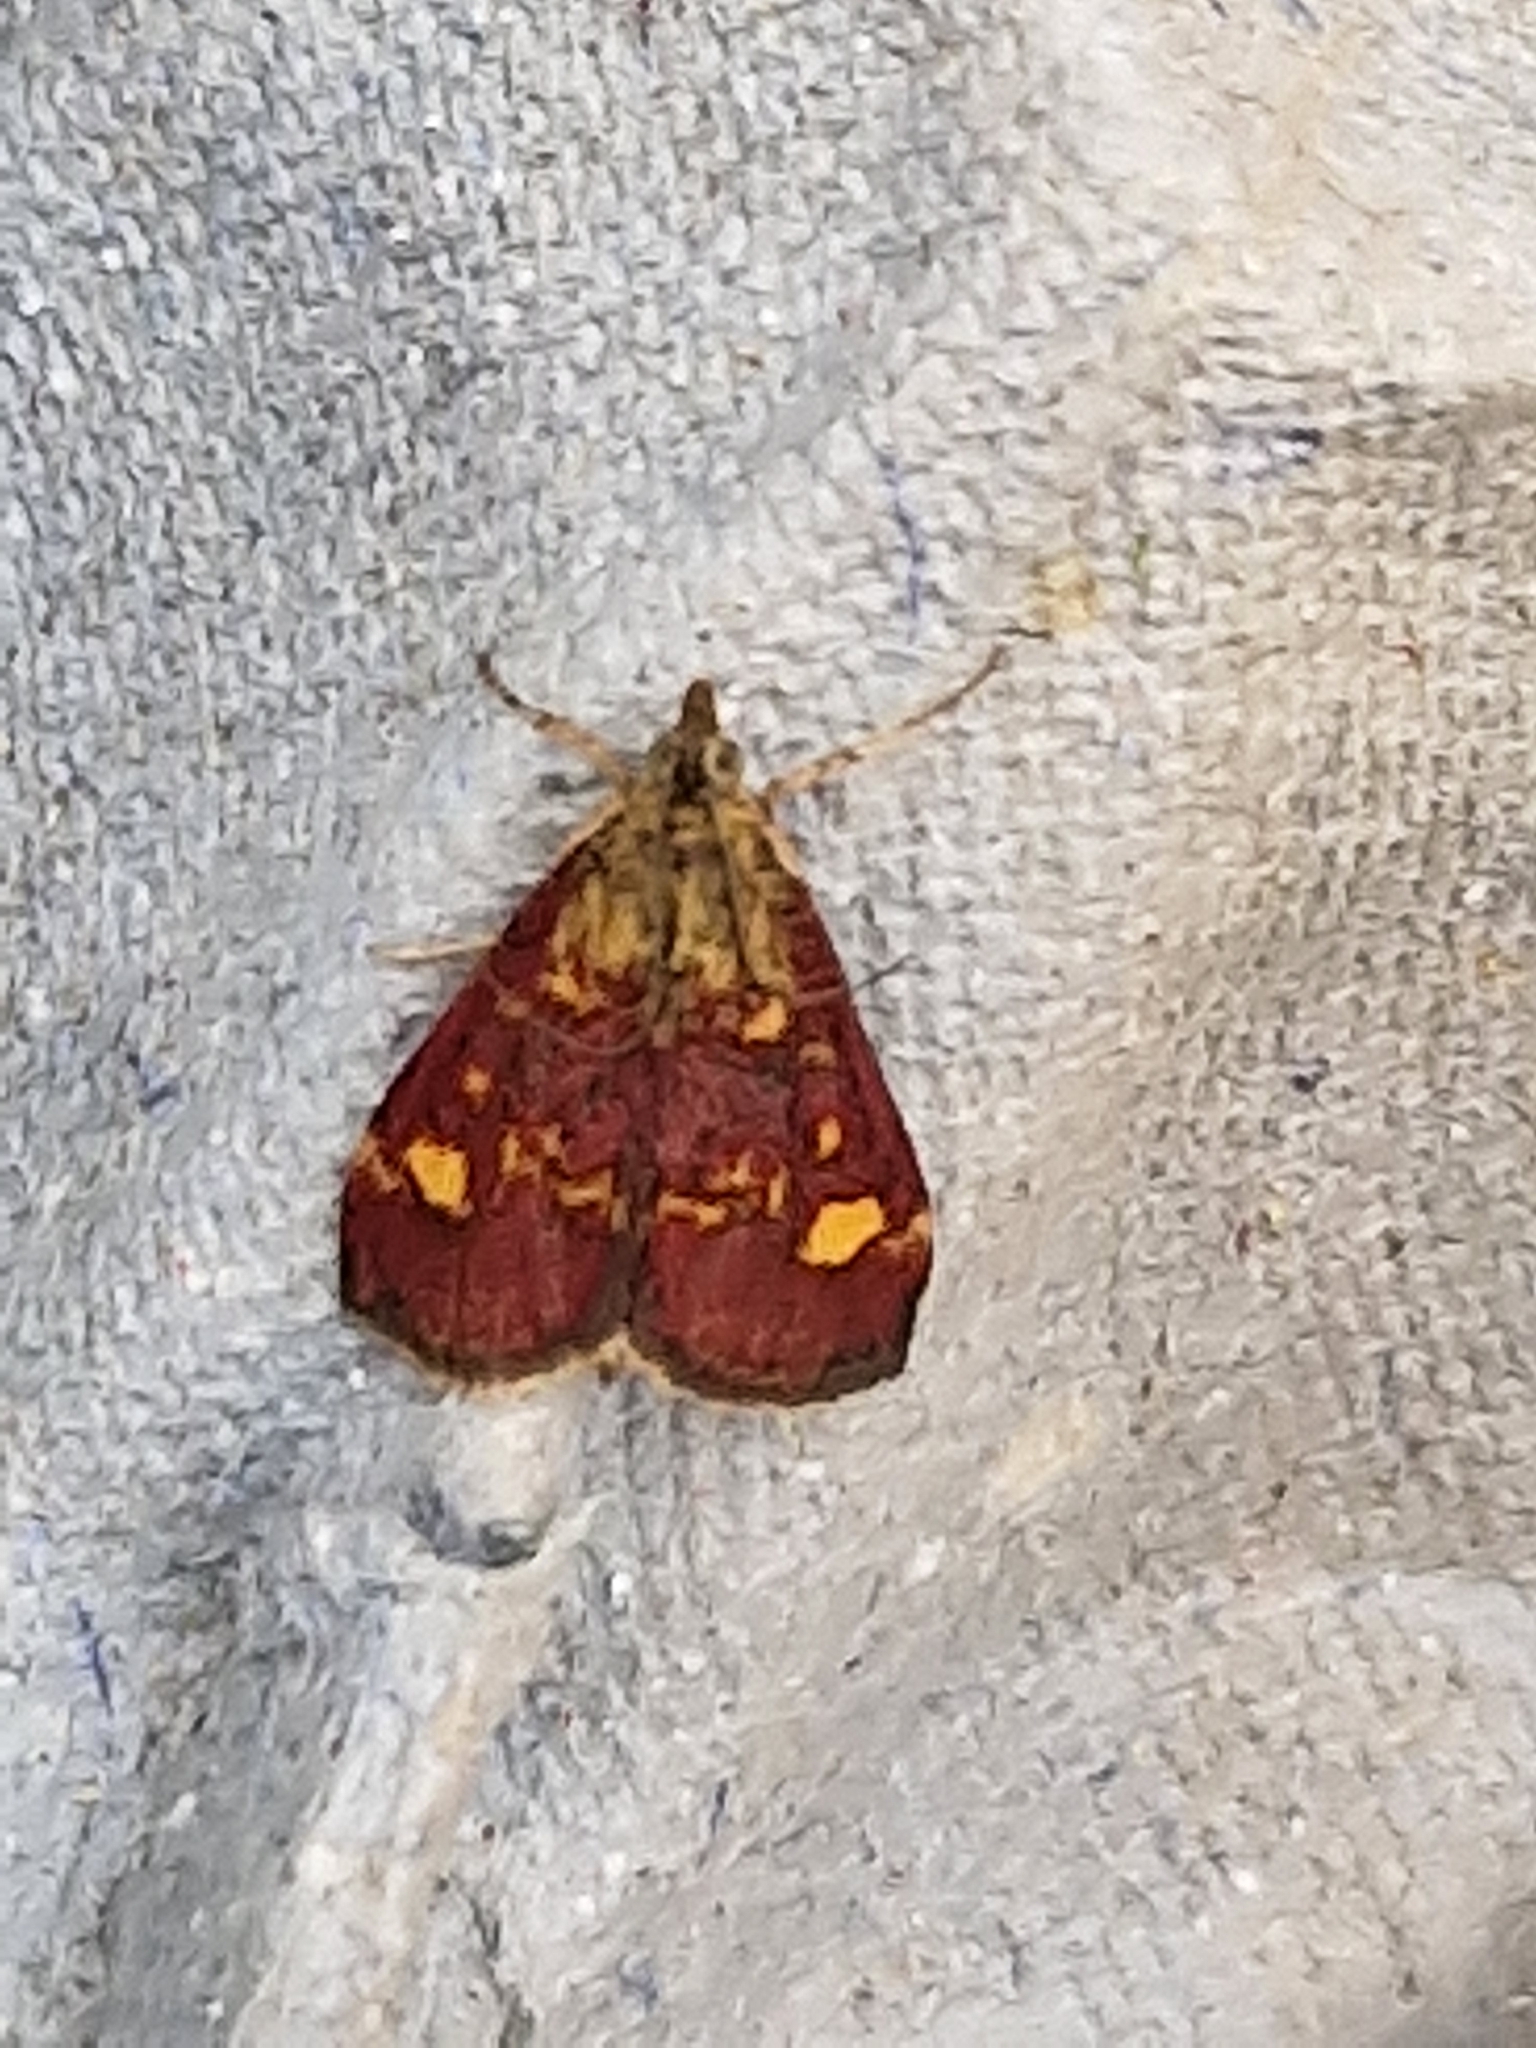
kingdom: Animalia
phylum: Arthropoda
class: Insecta
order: Lepidoptera
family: Crambidae
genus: Pyrausta
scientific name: Pyrausta aurata
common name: Small purple & gold
